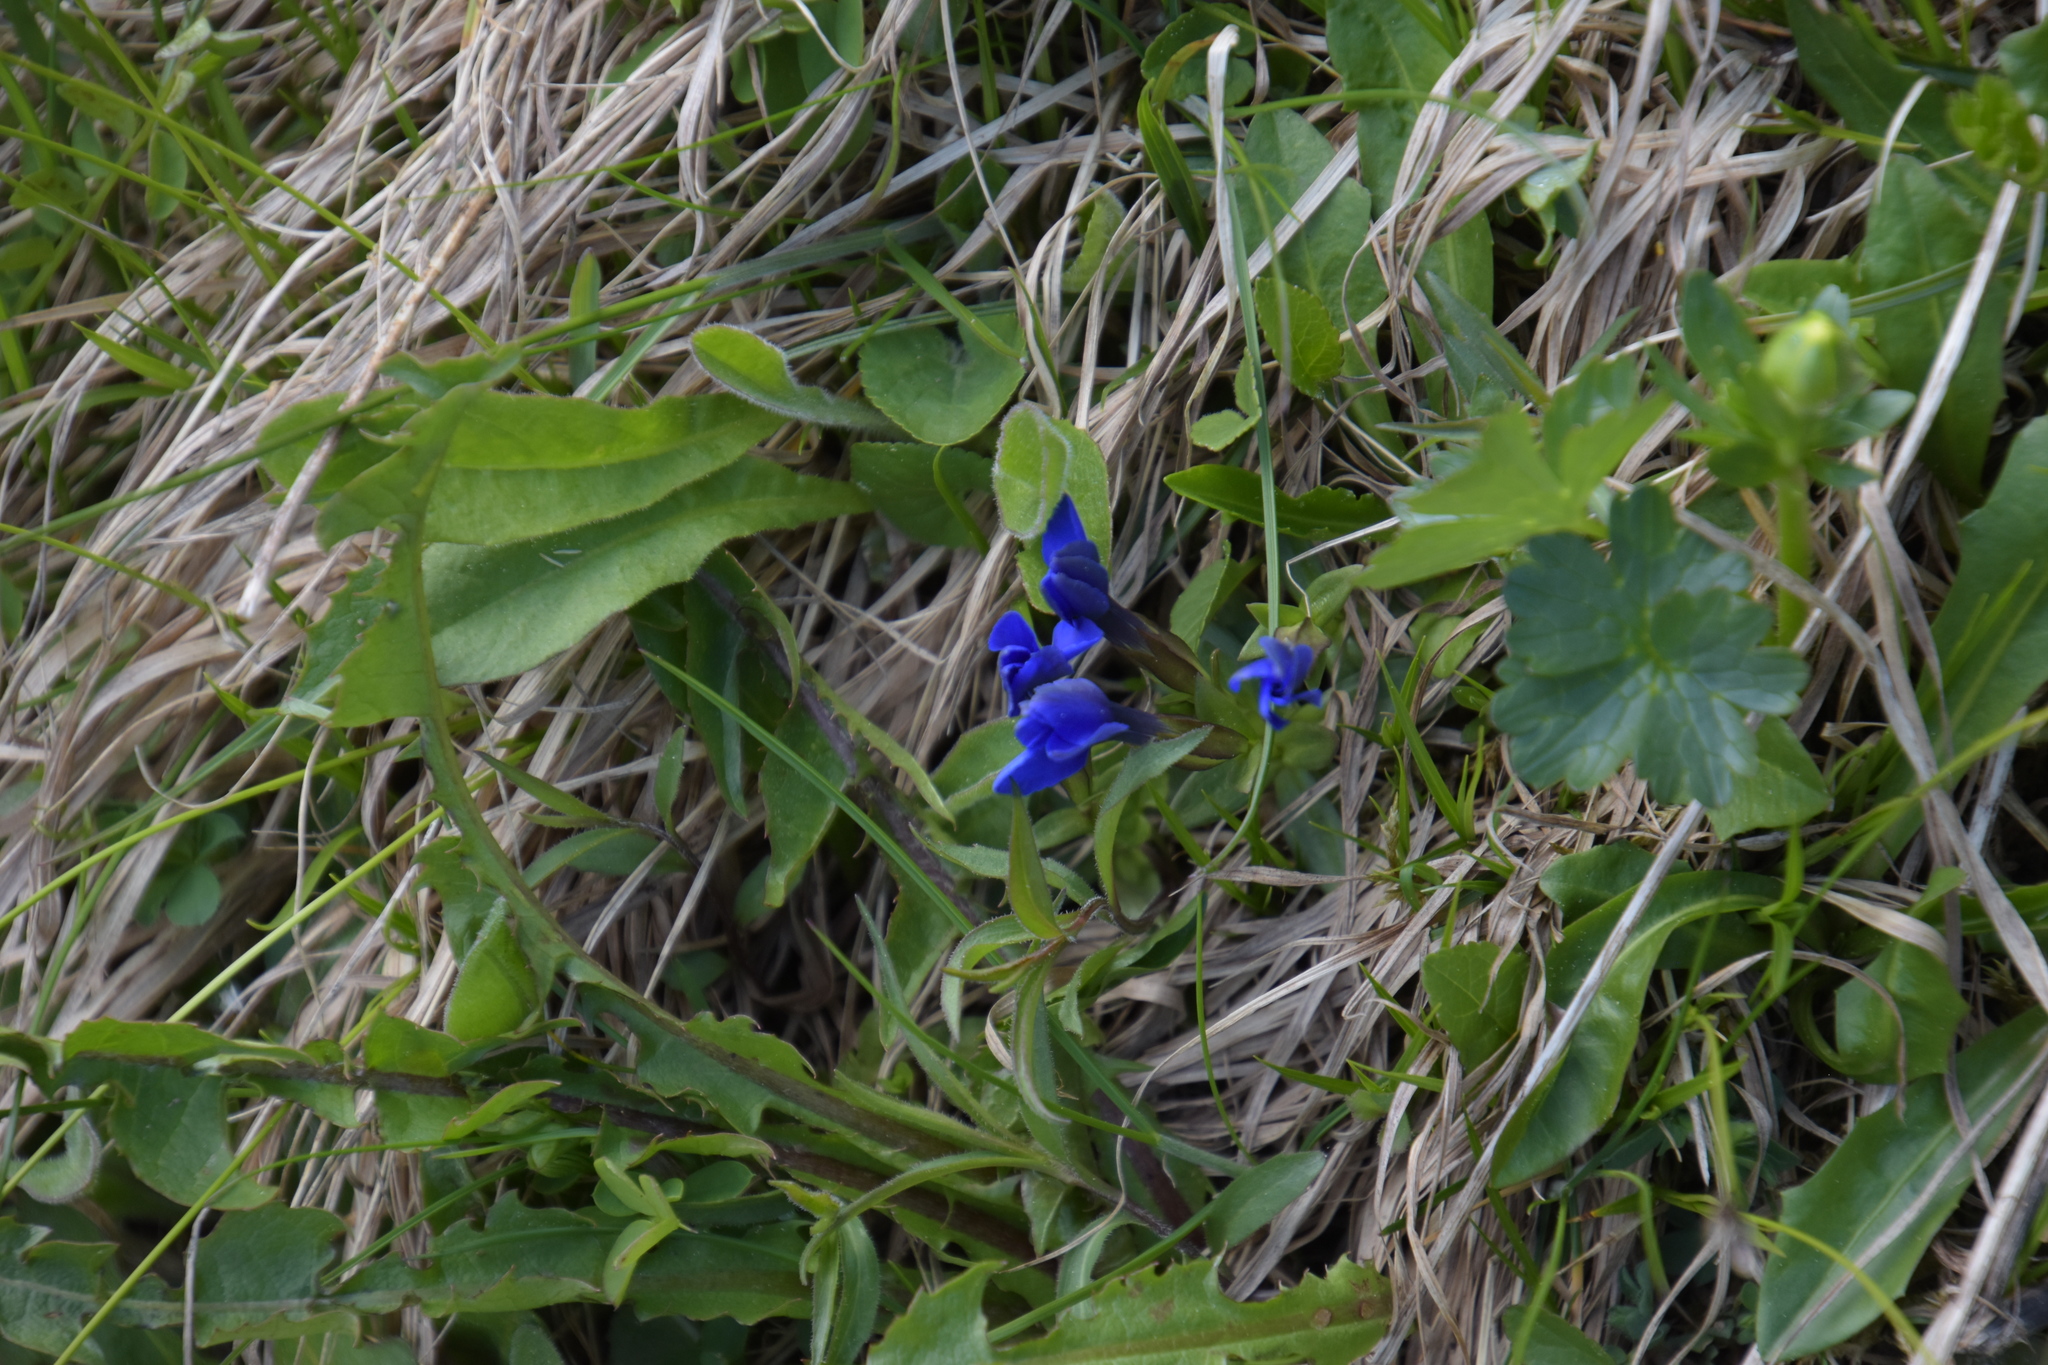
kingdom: Plantae
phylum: Tracheophyta
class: Magnoliopsida
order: Gentianales
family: Gentianaceae
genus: Gentiana
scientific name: Gentiana verna
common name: Spring gentian
